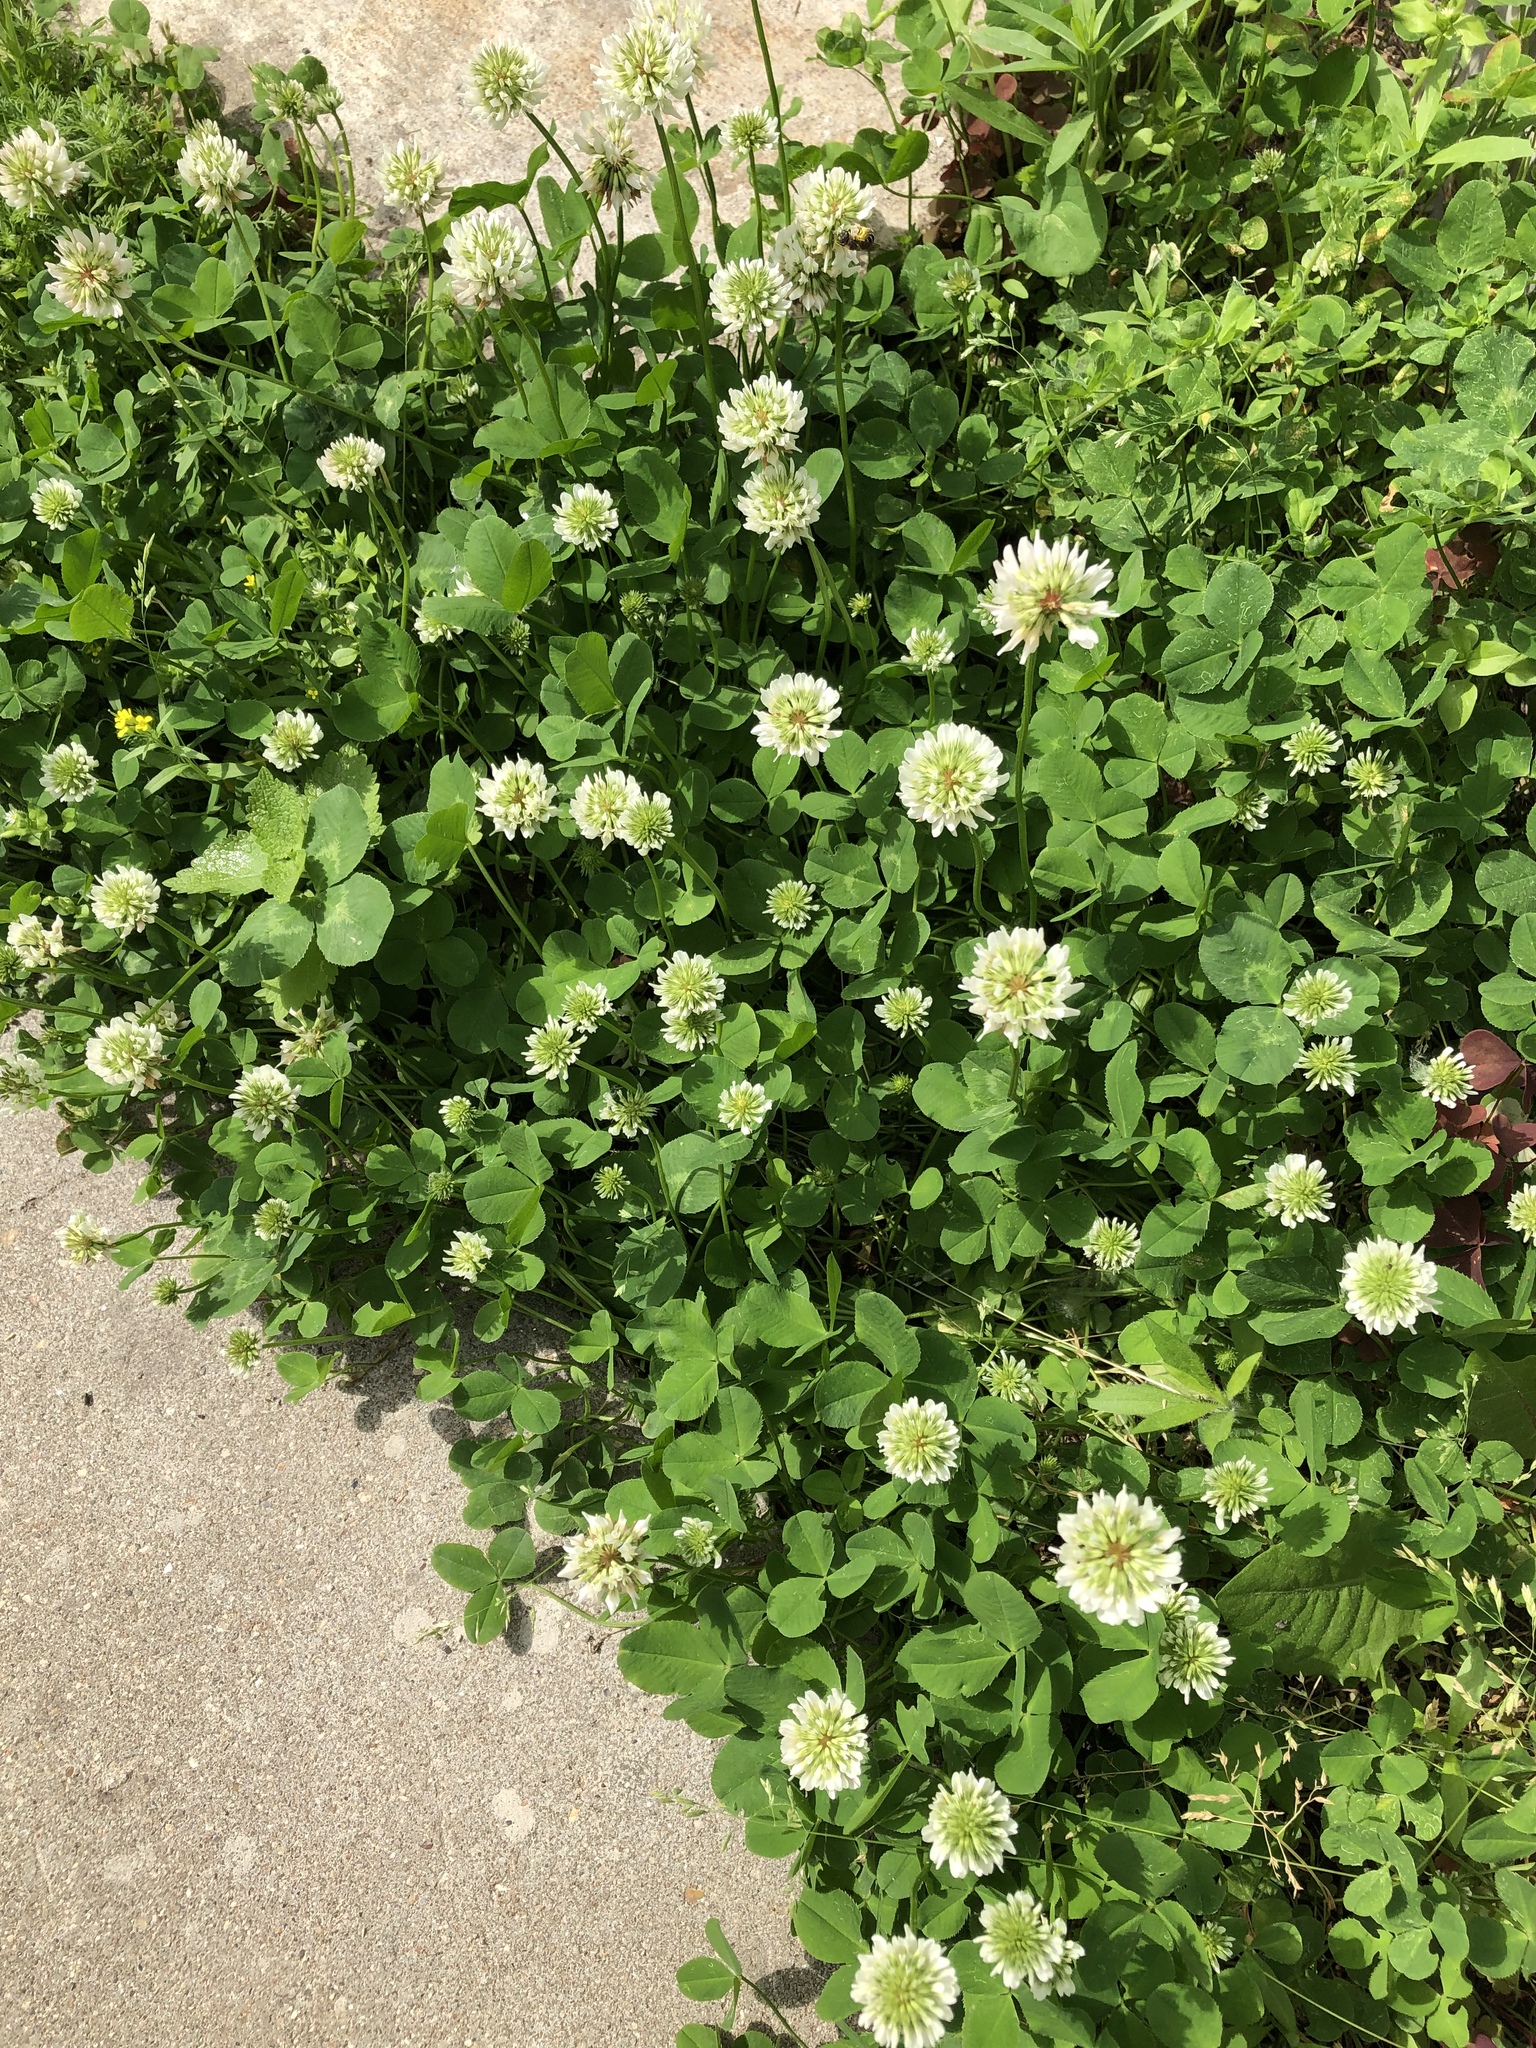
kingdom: Plantae
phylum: Tracheophyta
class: Magnoliopsida
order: Fabales
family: Fabaceae
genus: Trifolium
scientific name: Trifolium repens
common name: White clover
